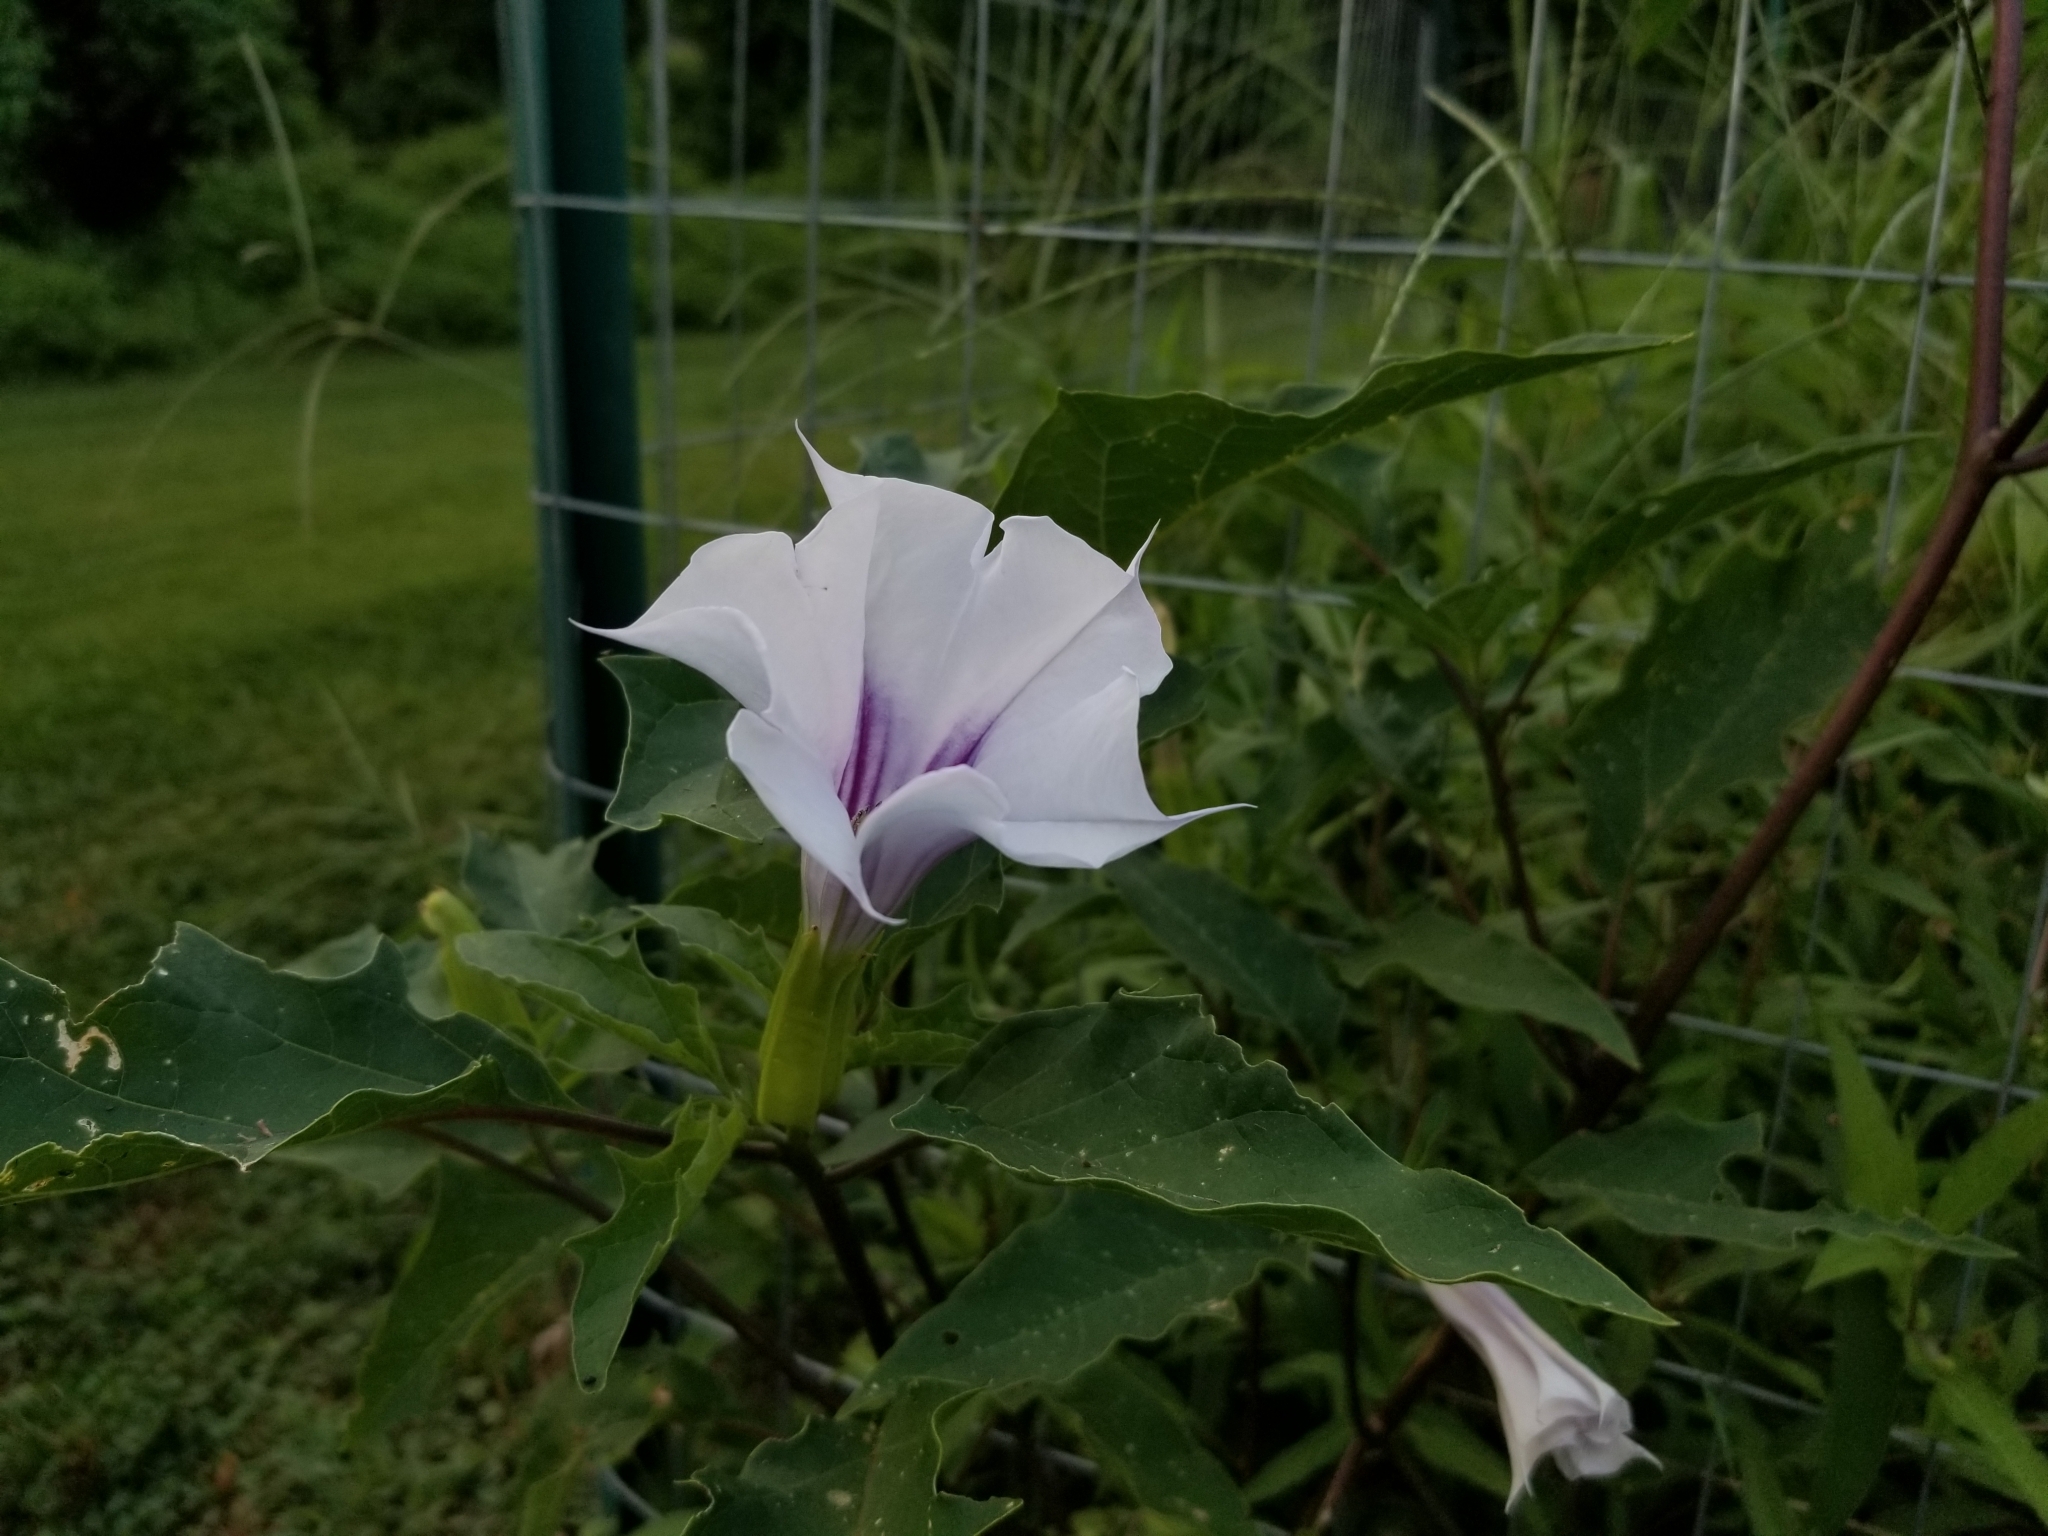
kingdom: Plantae
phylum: Tracheophyta
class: Magnoliopsida
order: Solanales
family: Solanaceae
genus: Datura
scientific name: Datura stramonium
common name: Thorn-apple
